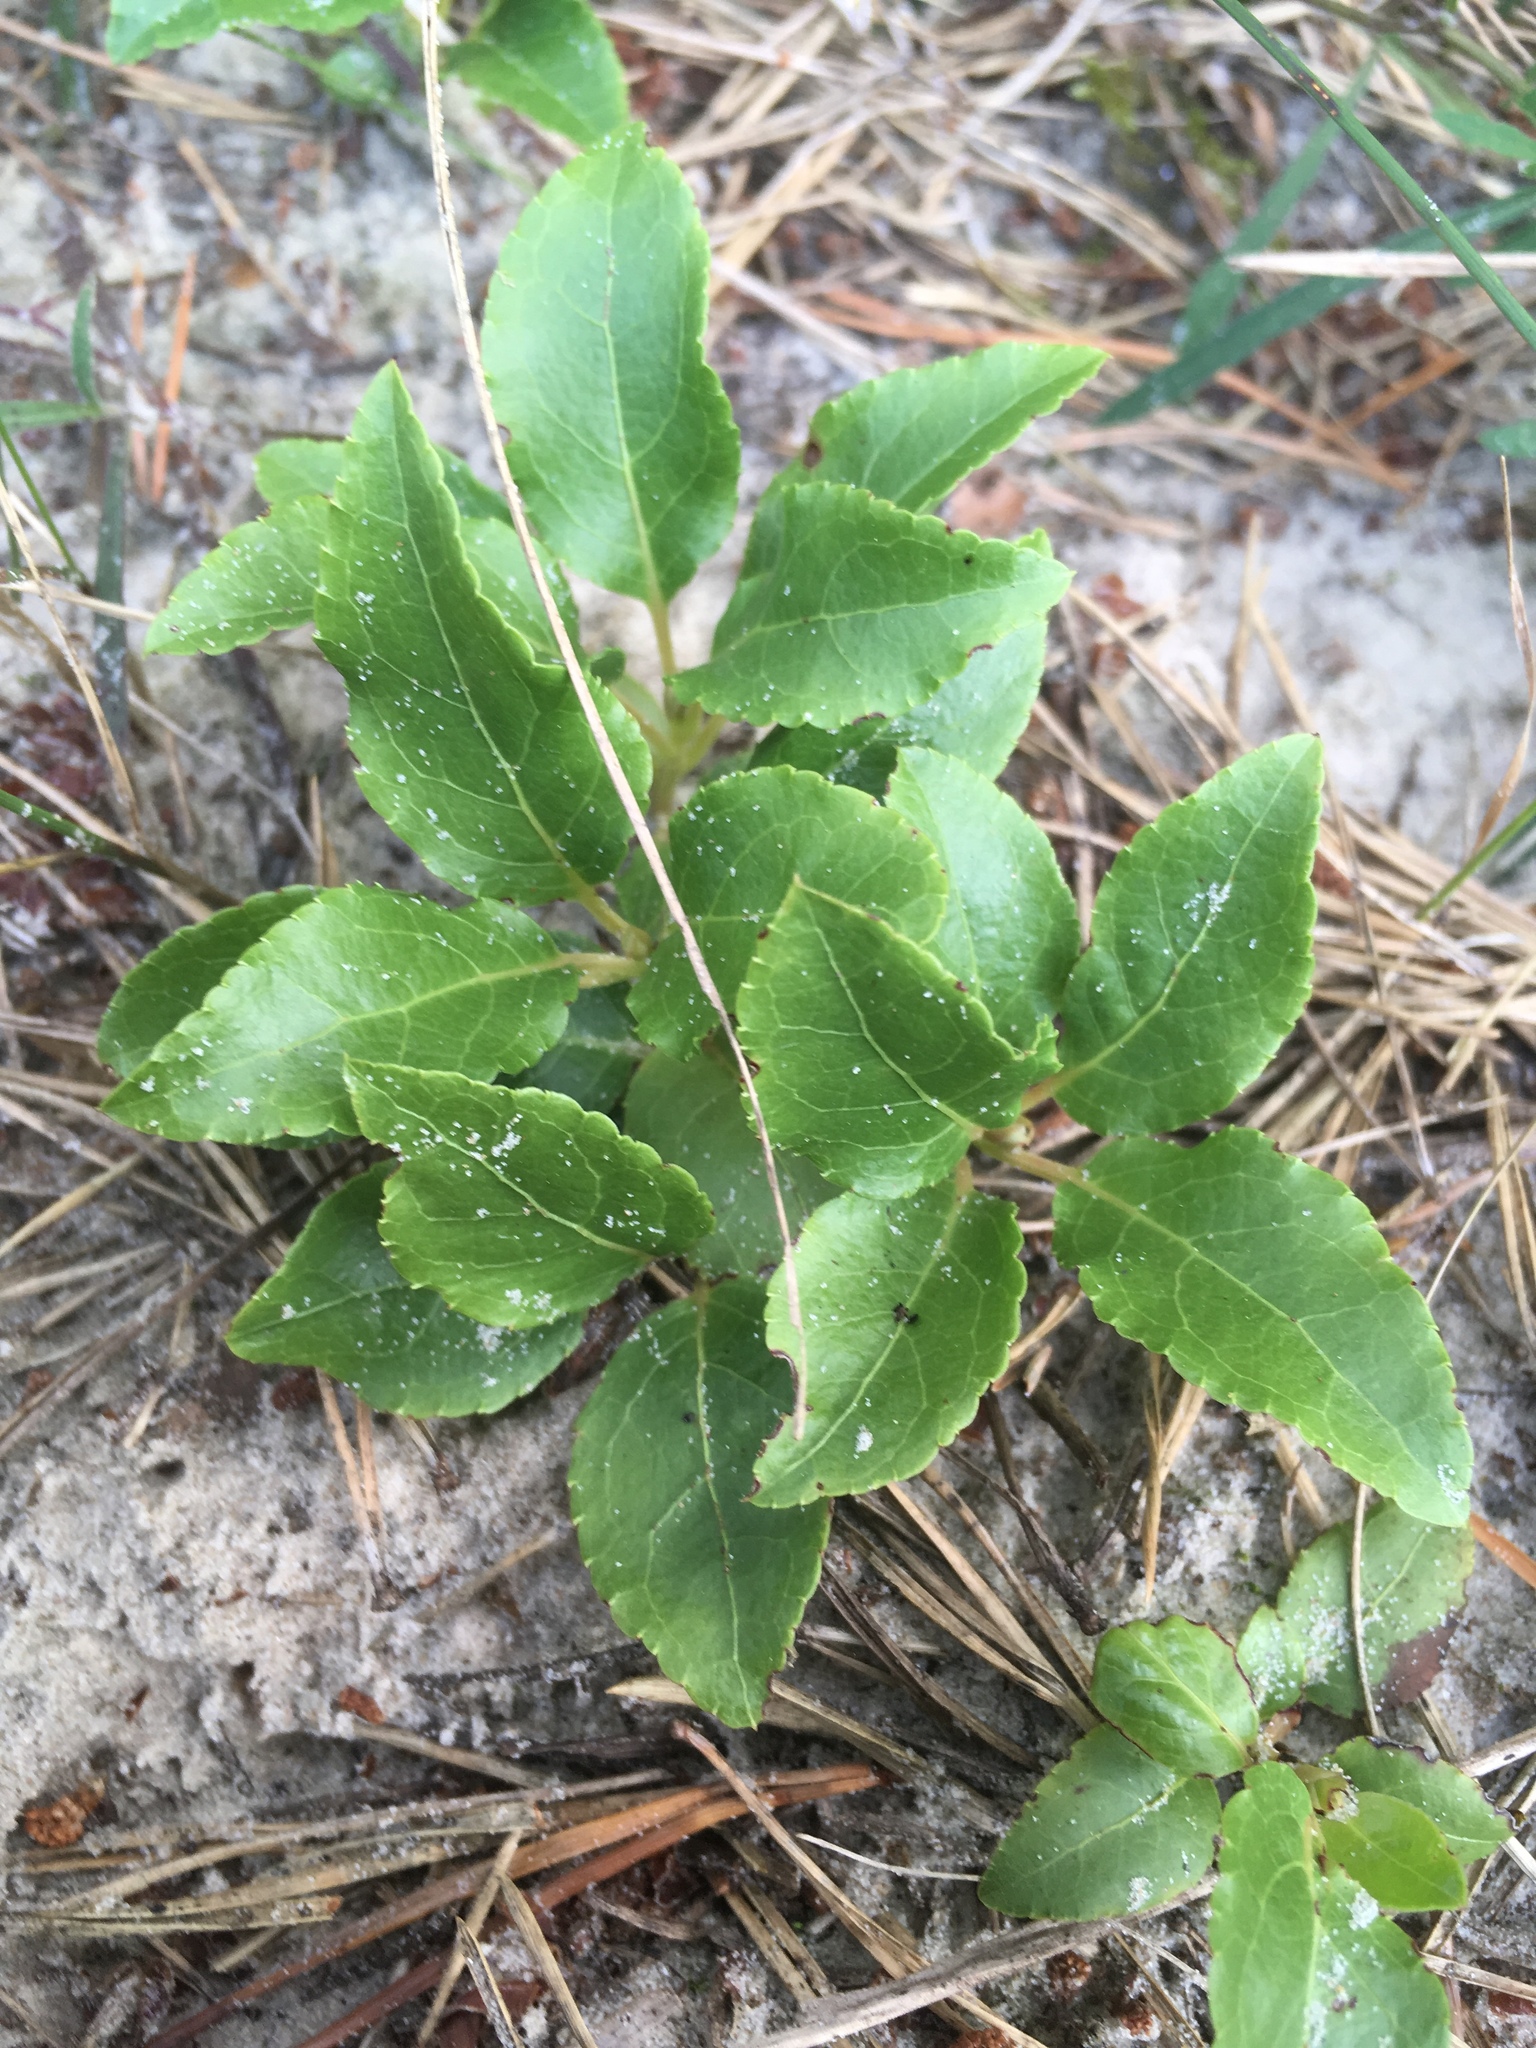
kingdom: Plantae
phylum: Tracheophyta
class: Magnoliopsida
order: Ericales
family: Ericaceae
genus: Orthilia
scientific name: Orthilia secunda
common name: One-sided orthilia
